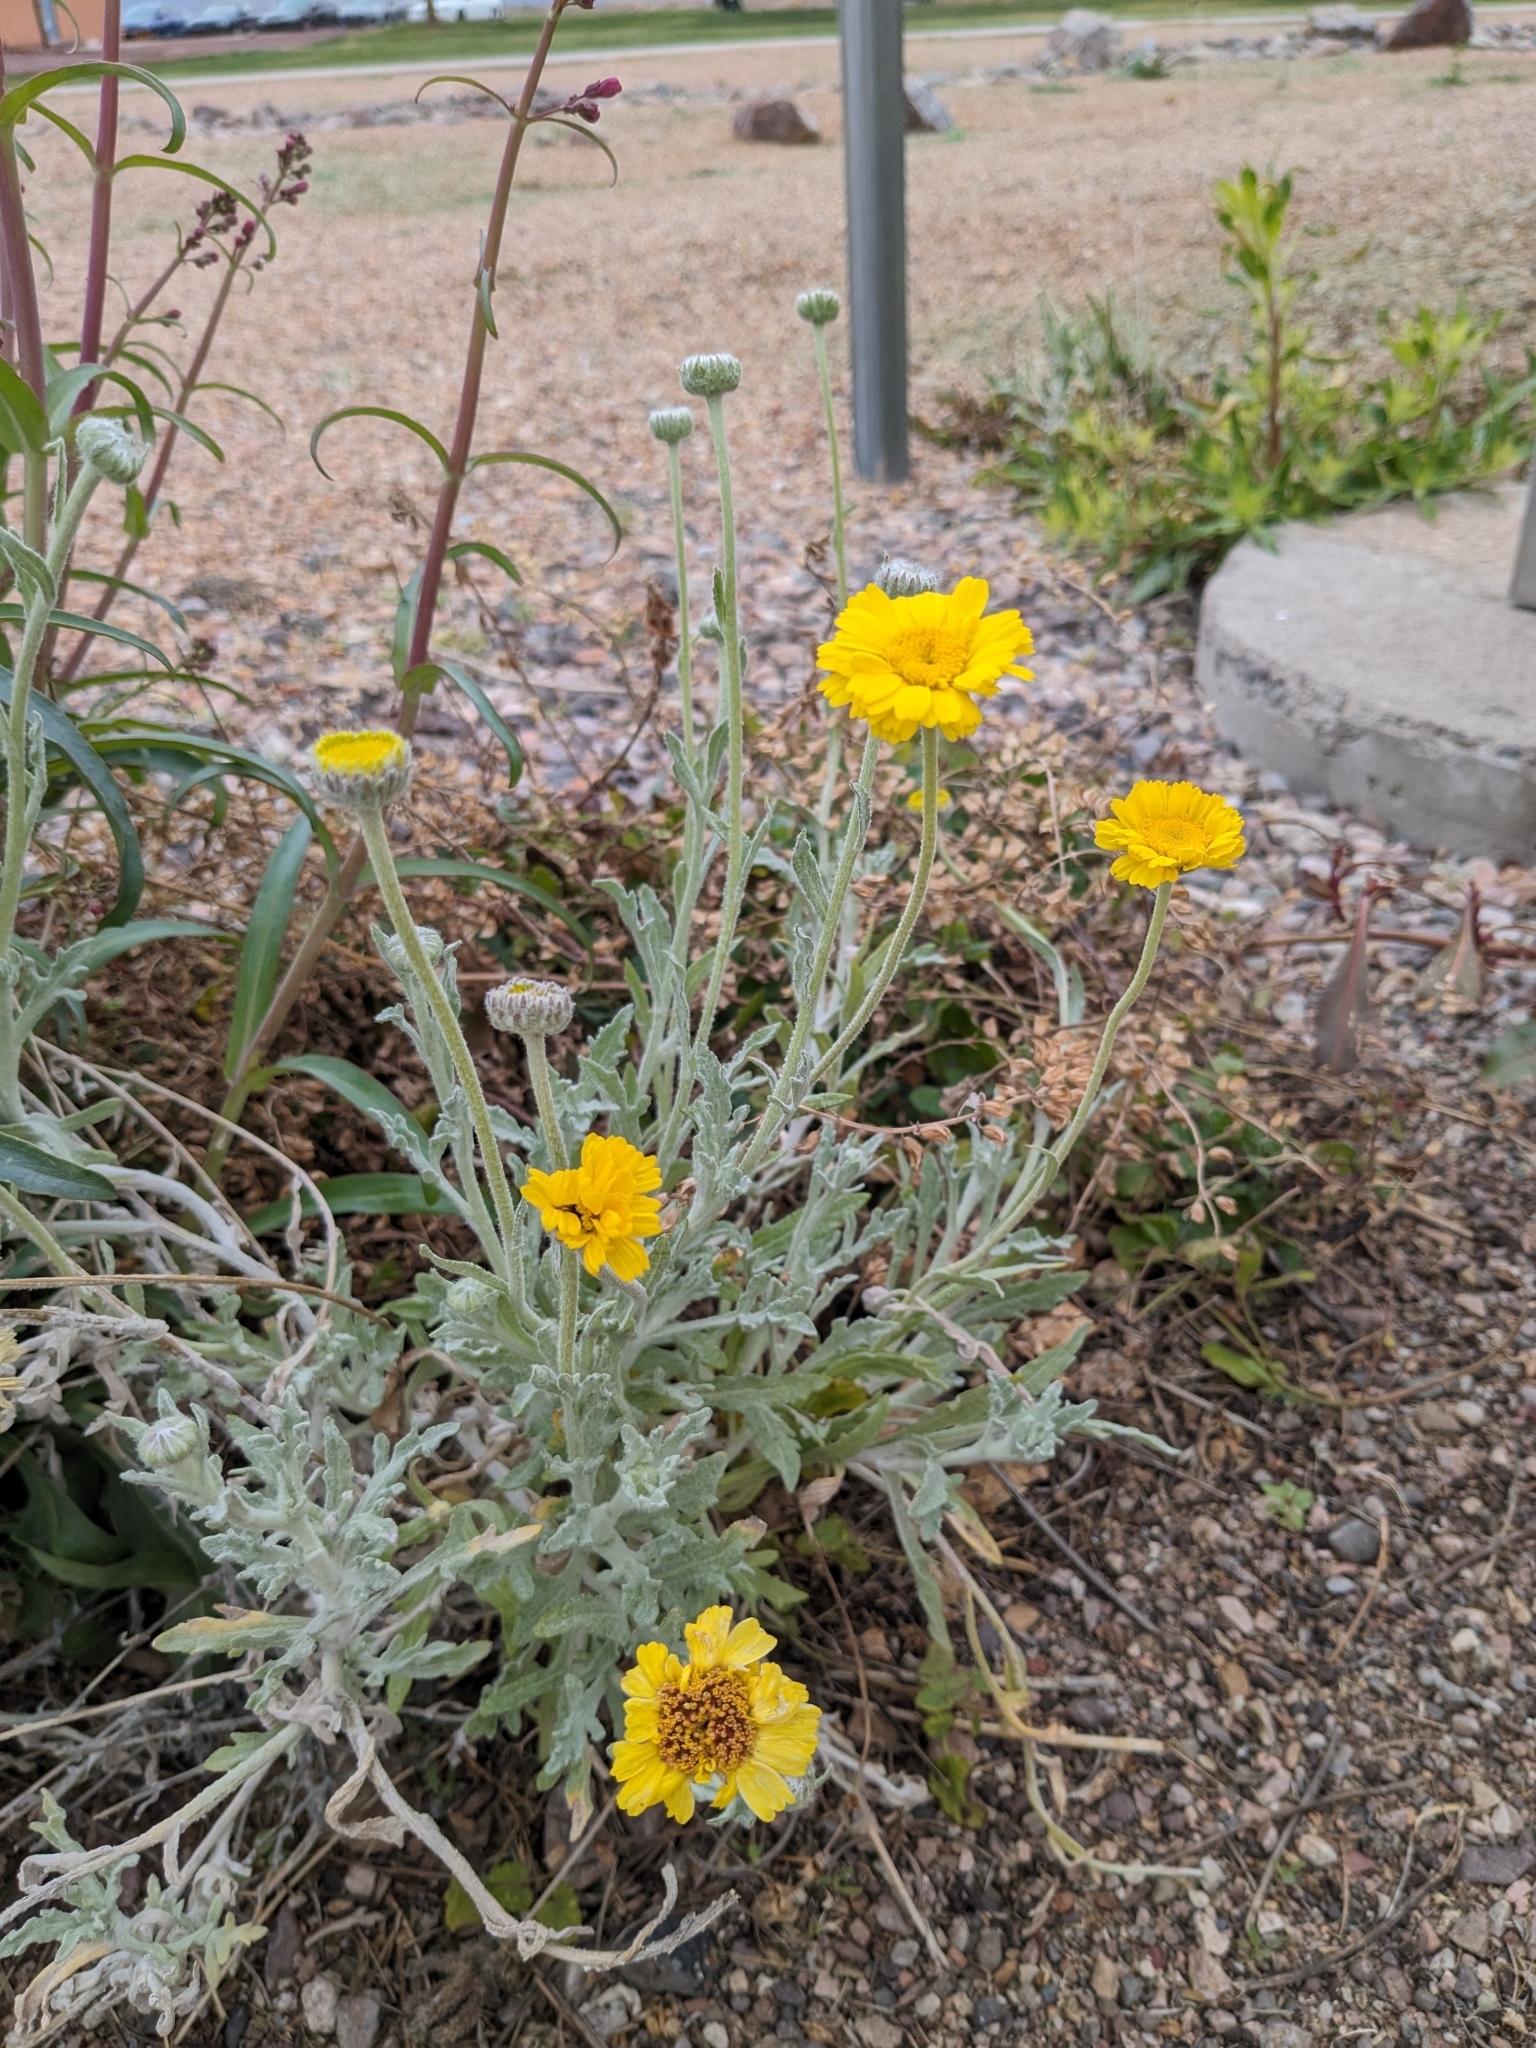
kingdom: Plantae
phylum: Tracheophyta
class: Magnoliopsida
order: Asterales
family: Asteraceae
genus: Baileya
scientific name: Baileya multiradiata
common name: Desert-marigold
